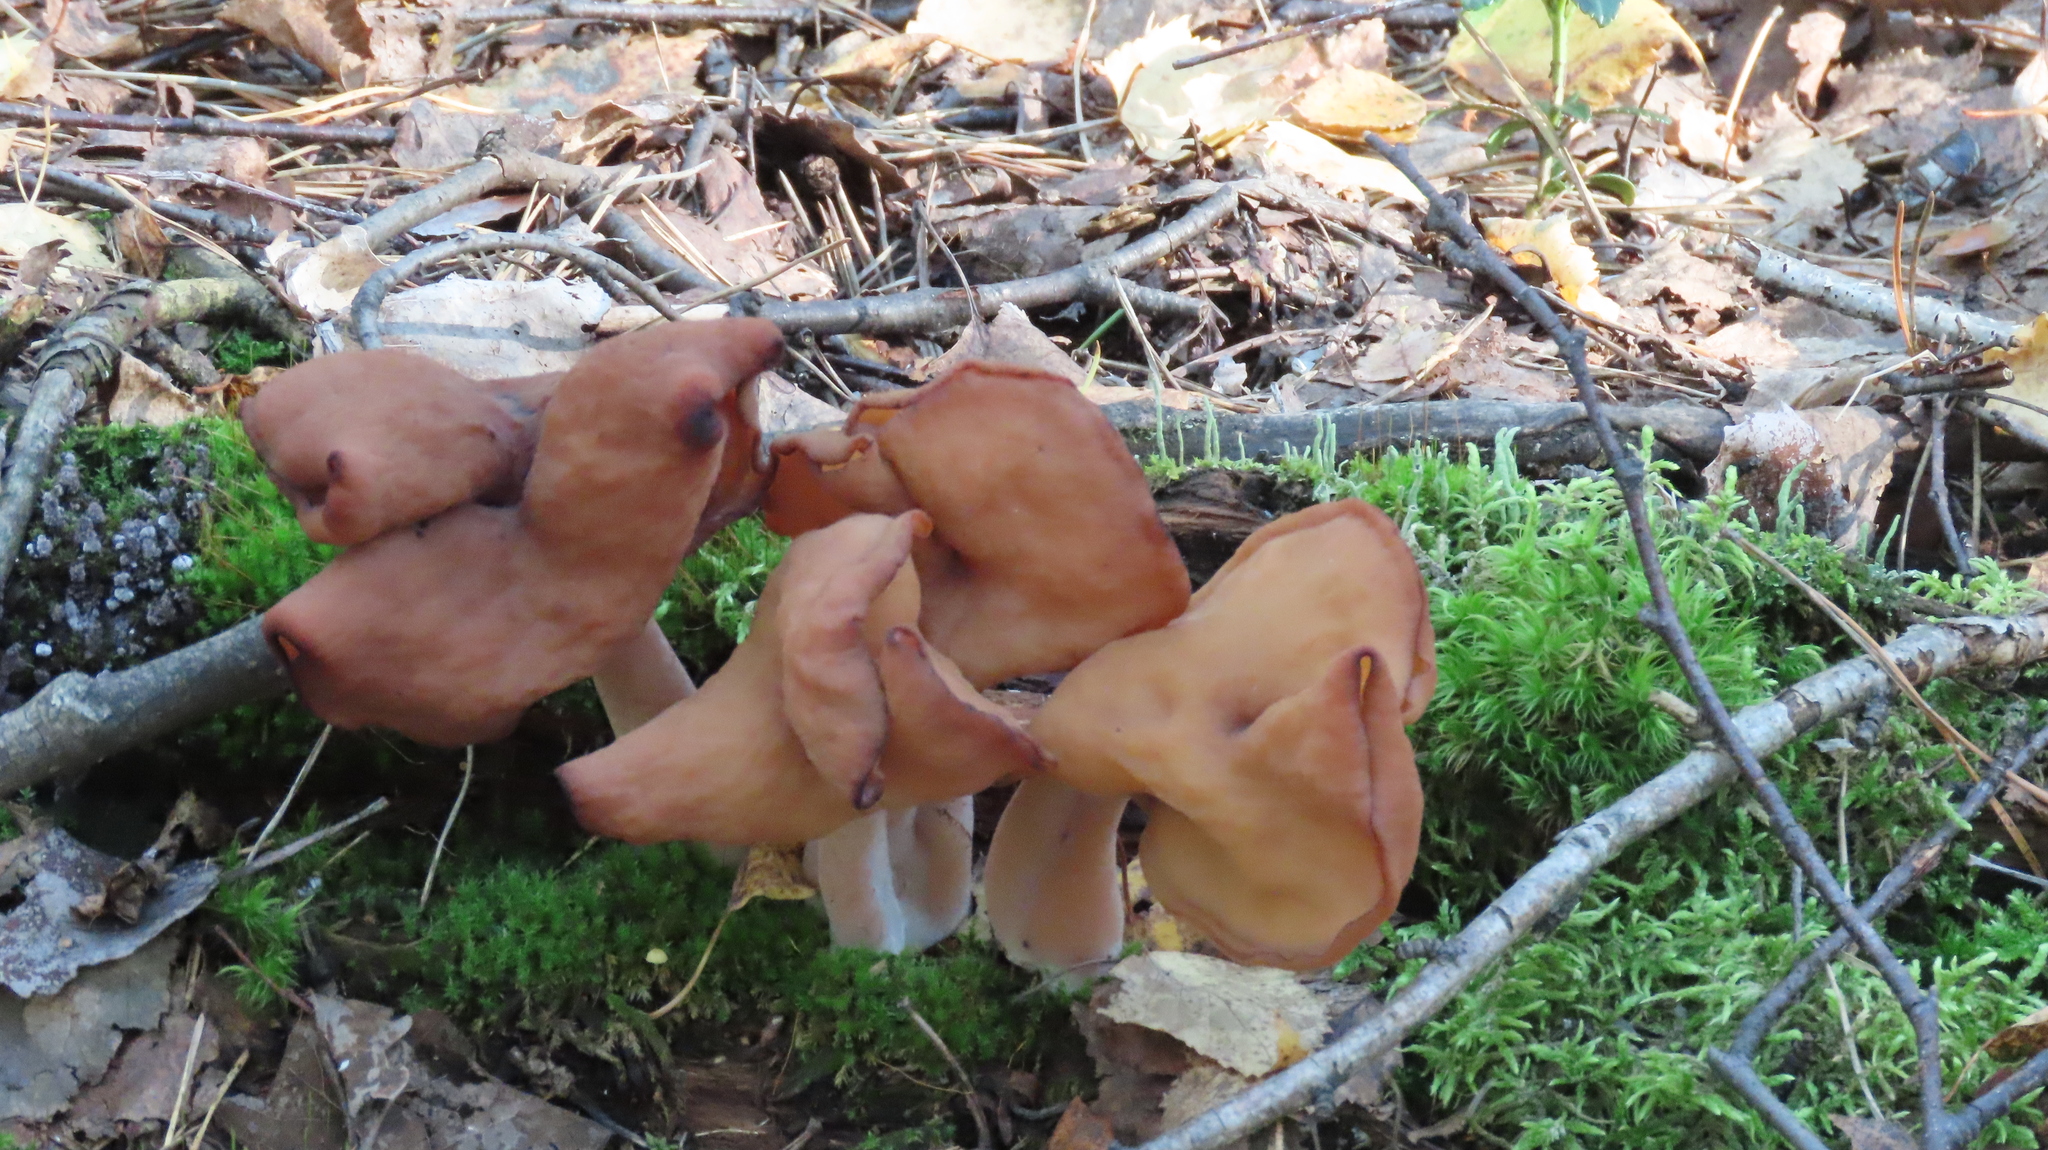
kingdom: Fungi
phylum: Ascomycota
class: Pezizomycetes
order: Pezizales
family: Discinaceae
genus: Gyromitra
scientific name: Gyromitra infula
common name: Pouched false morel
